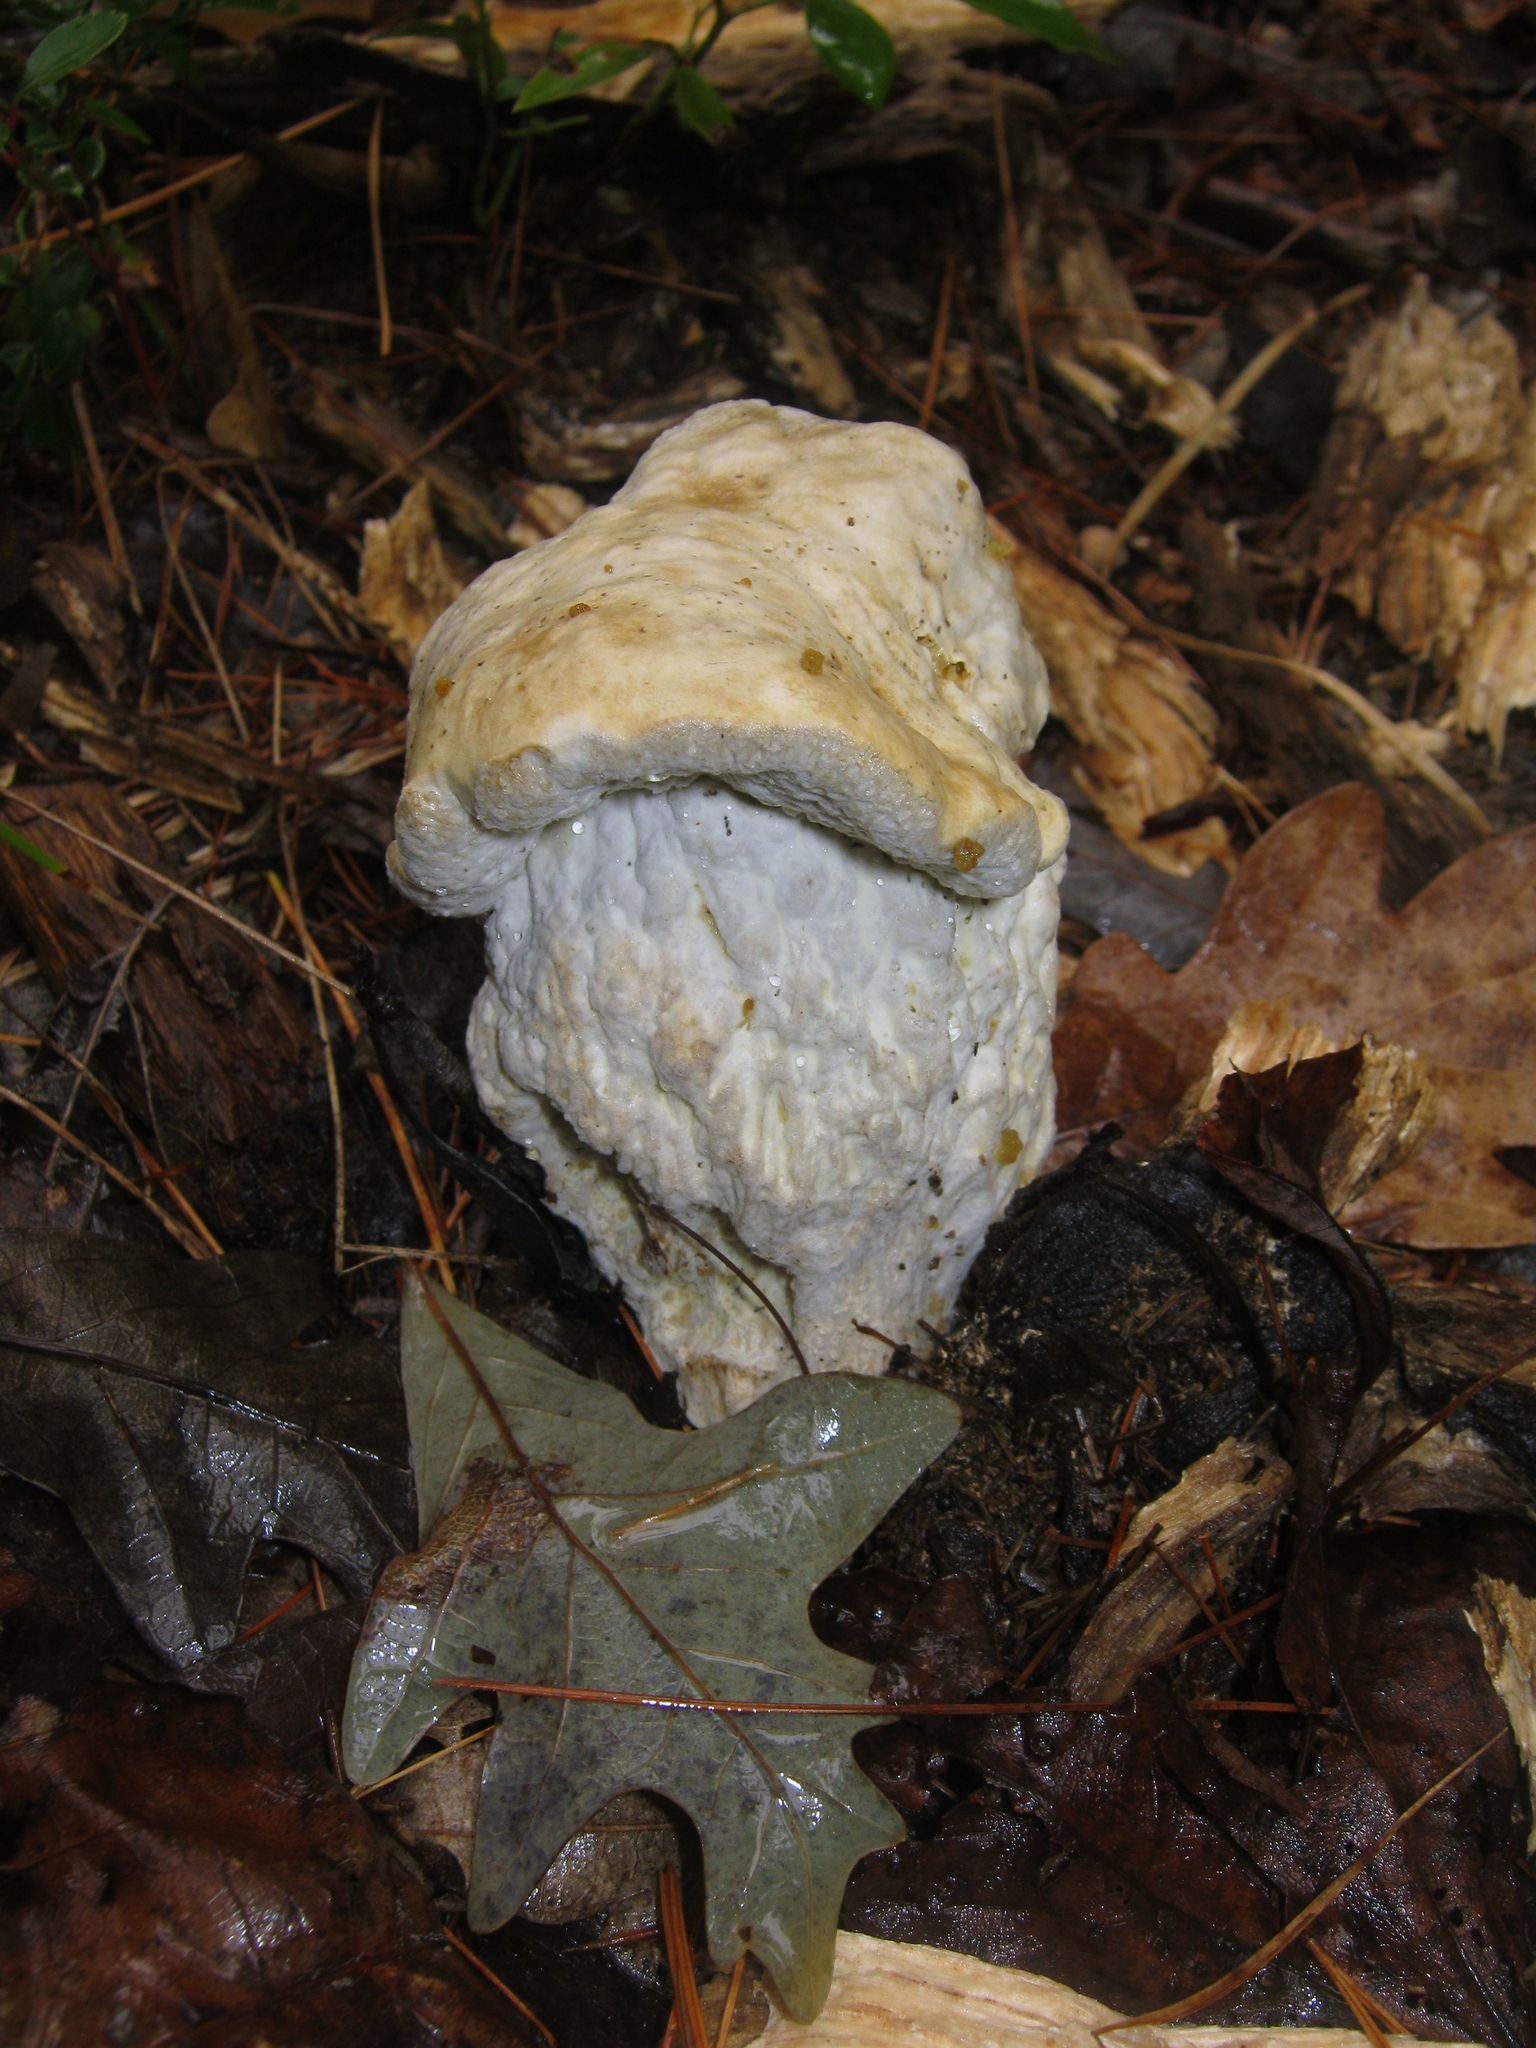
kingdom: Fungi
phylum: Ascomycota
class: Sordariomycetes
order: Hypocreales
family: Hypocreaceae
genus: Hypomyces
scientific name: Hypomyces completus
